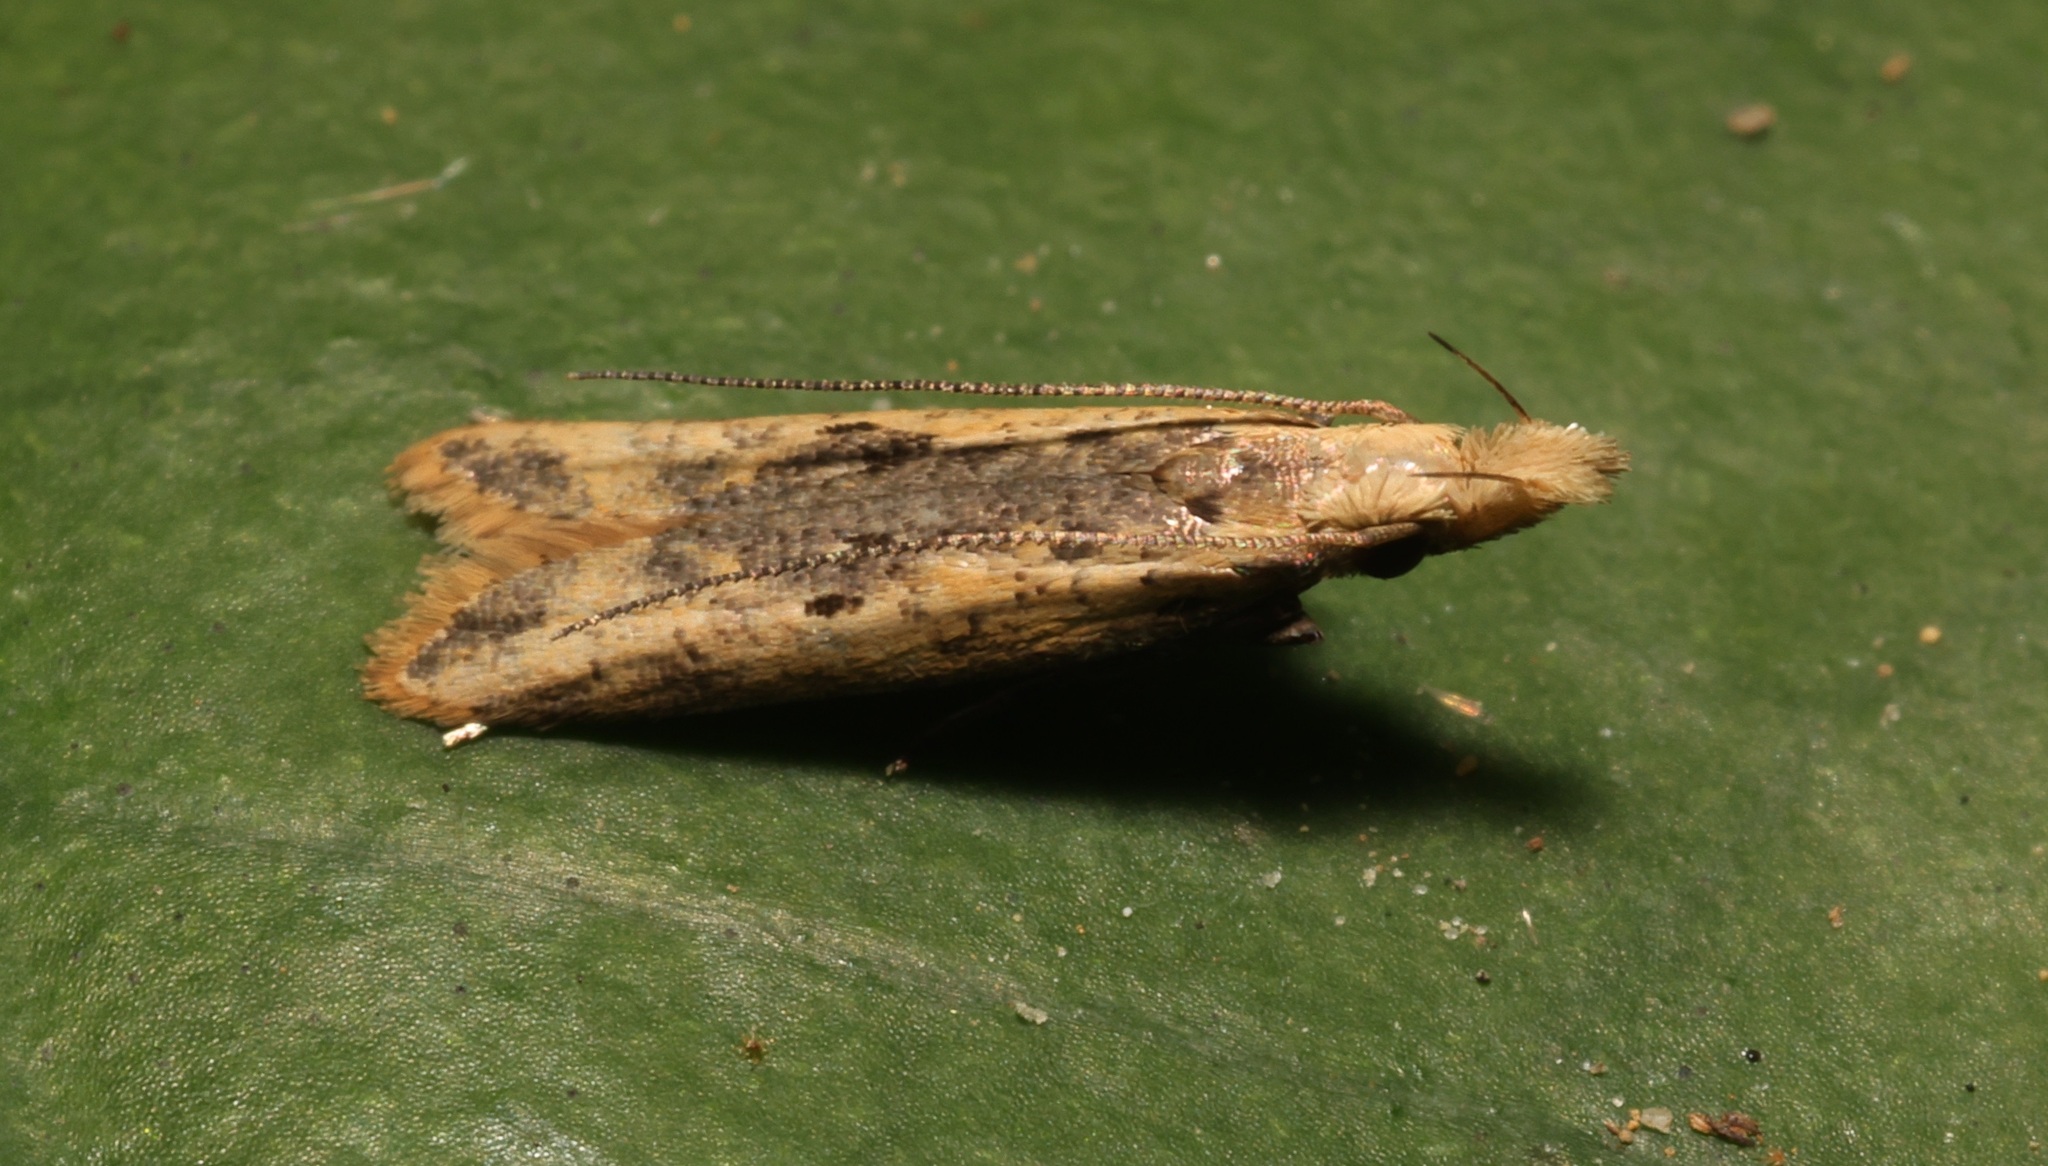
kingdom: Animalia
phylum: Arthropoda
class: Insecta
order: Lepidoptera
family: Gelechiidae
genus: Dichomeris
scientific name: Dichomeris ochthophora
